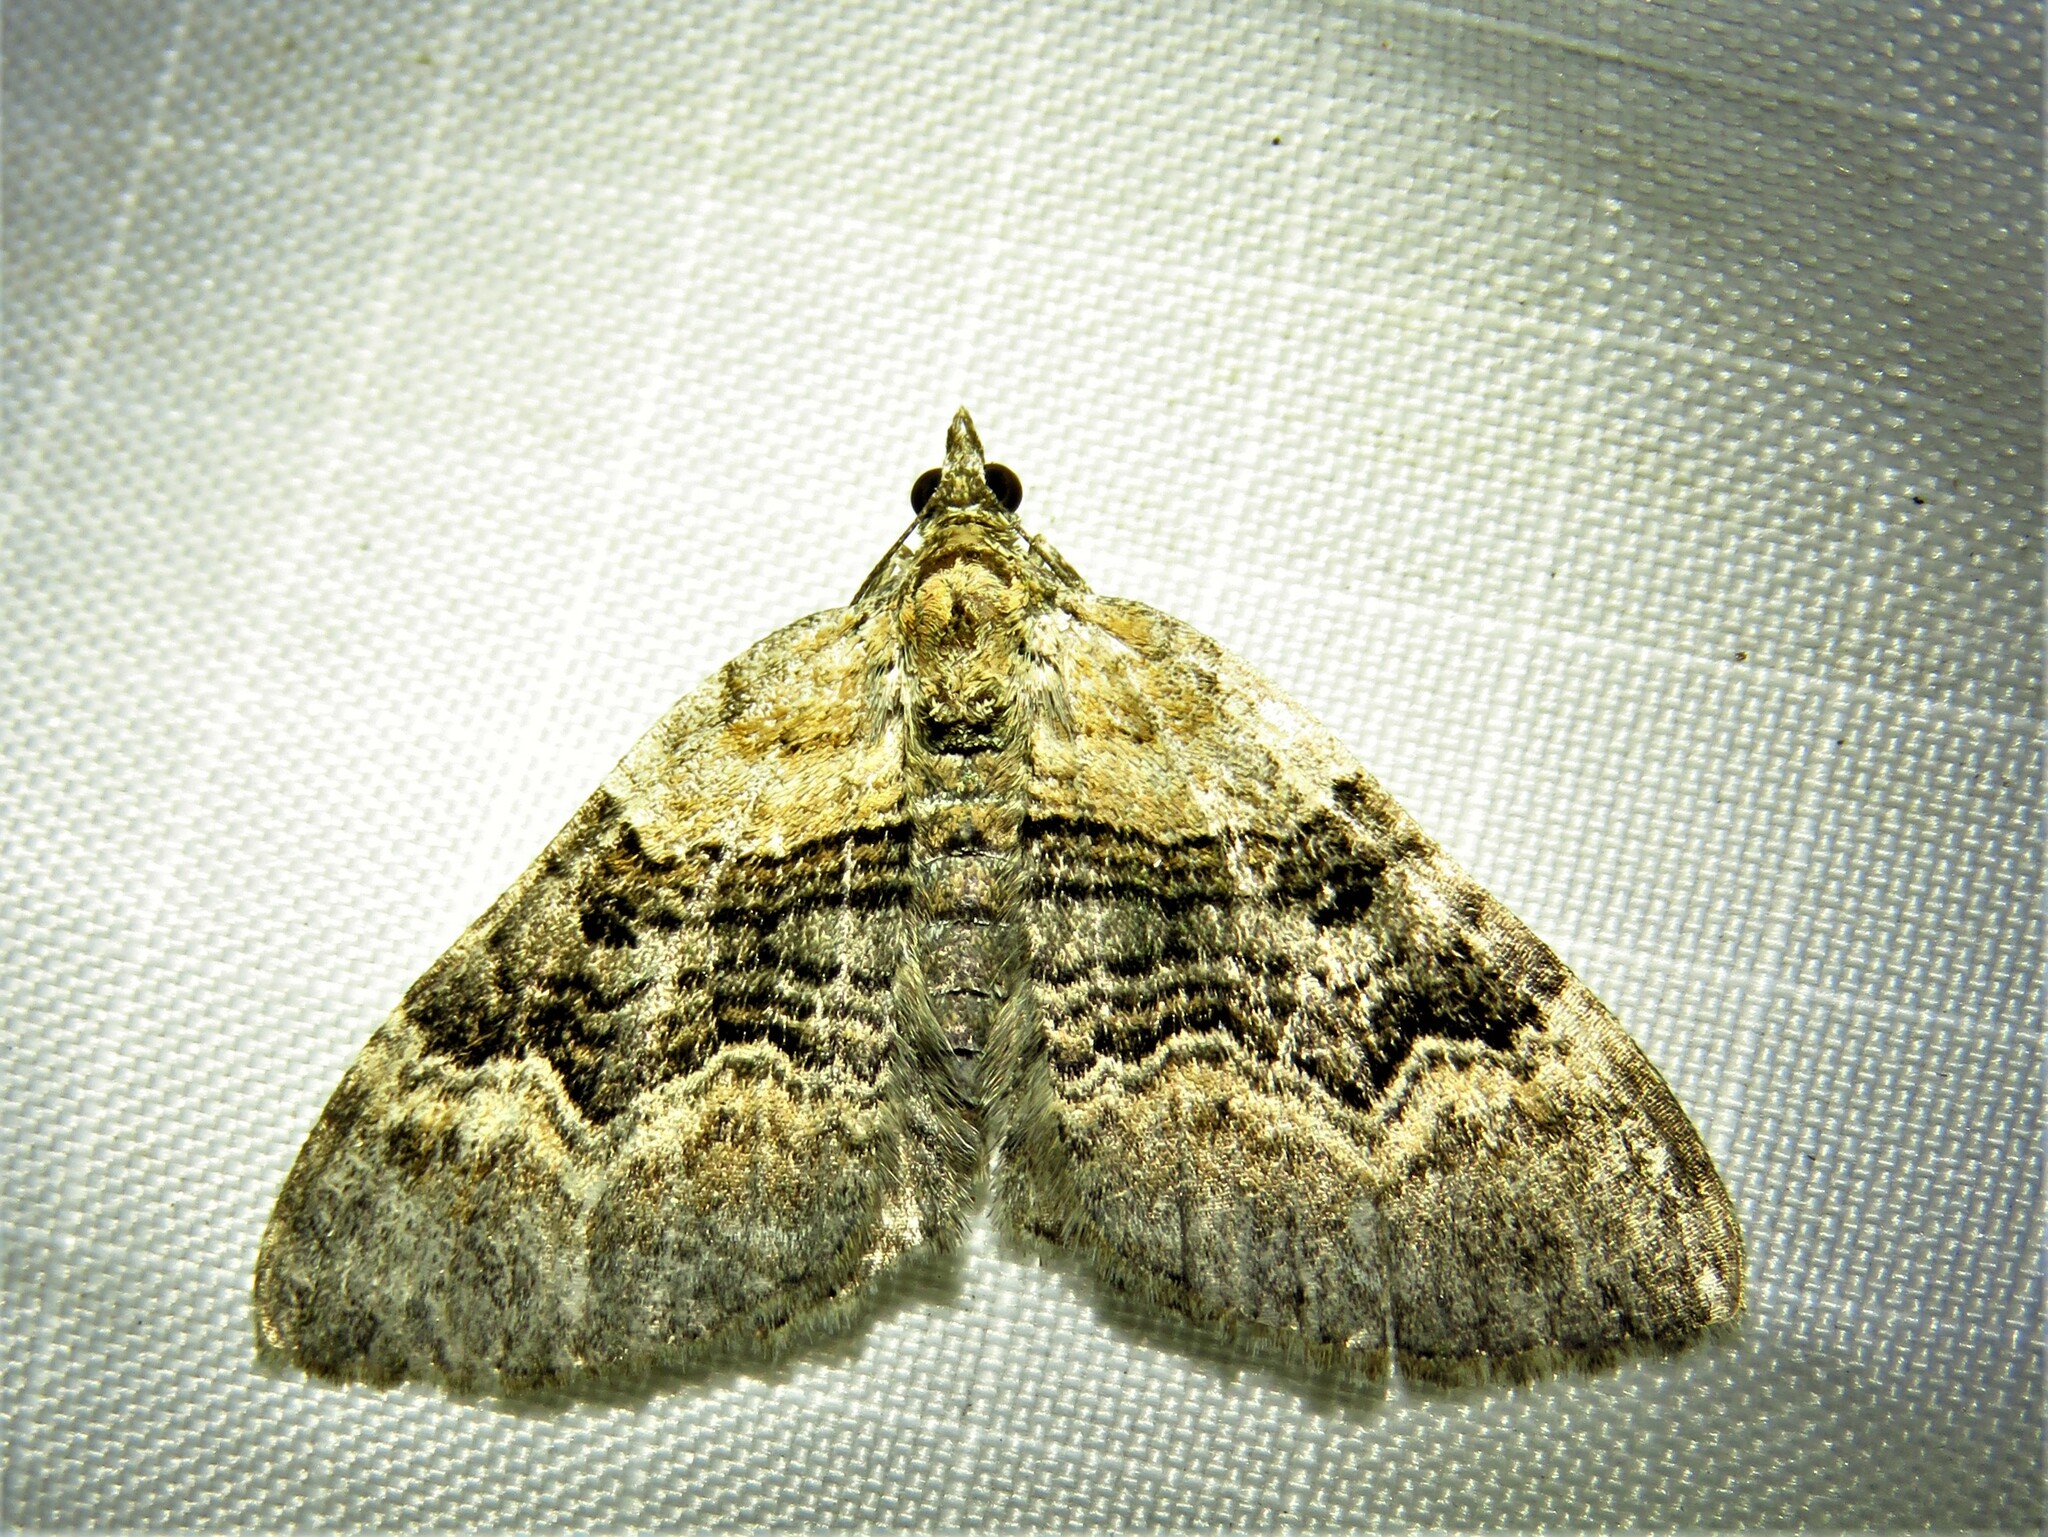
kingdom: Animalia
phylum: Arthropoda
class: Insecta
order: Lepidoptera
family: Geometridae
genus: Xanthorhoe
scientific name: Xanthorhoe quadrifasiata
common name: Large twin-spot carpet
